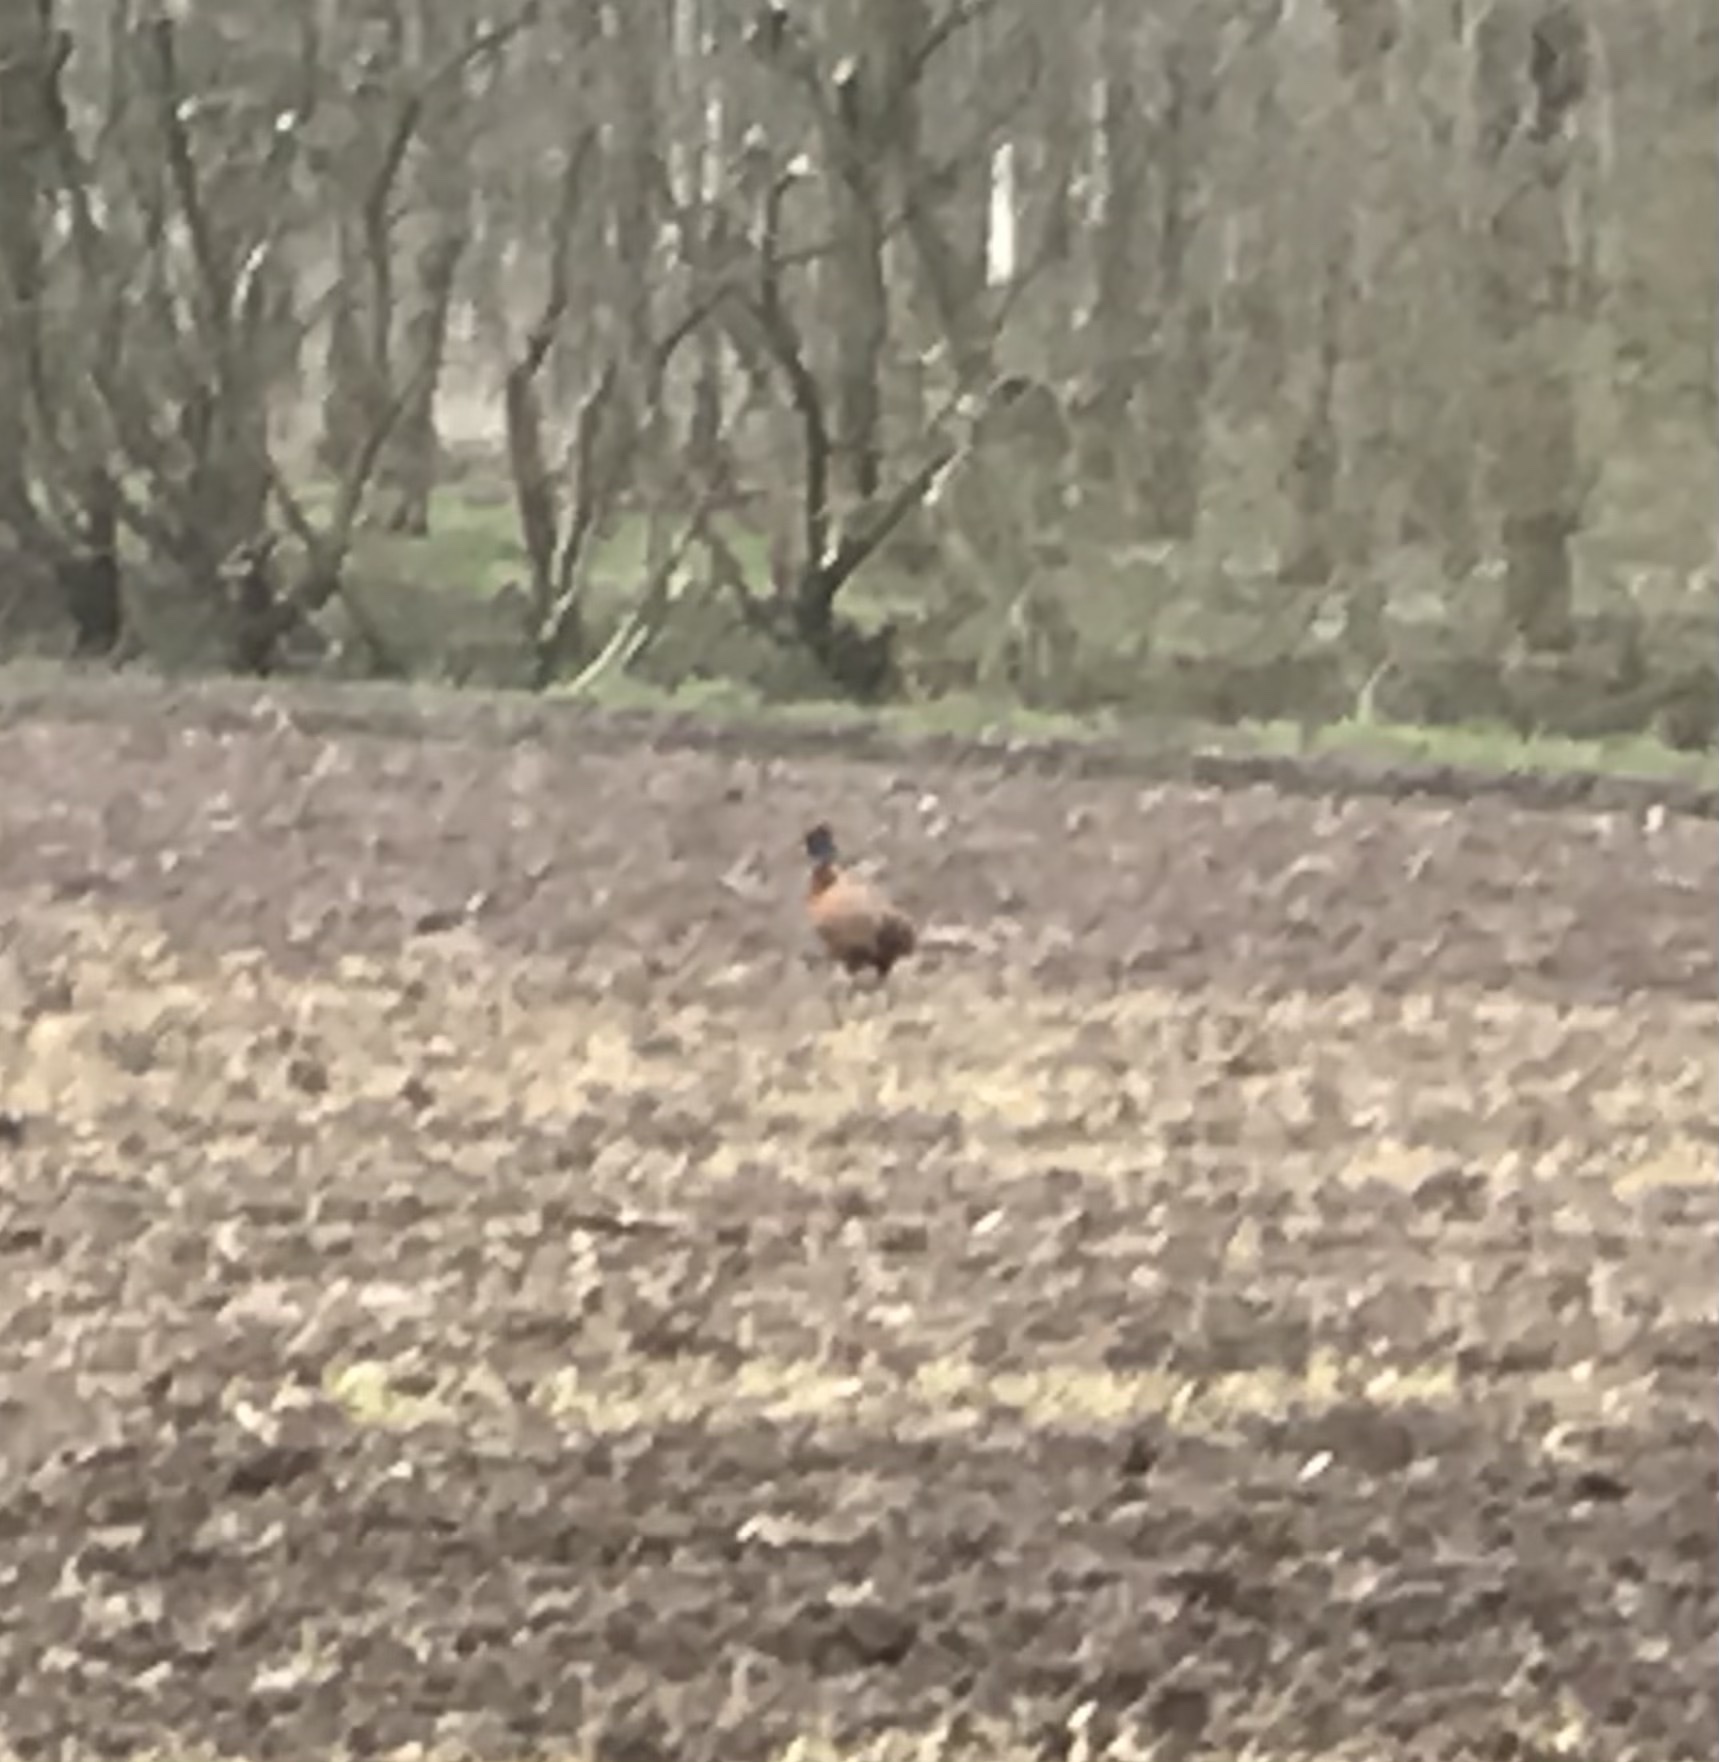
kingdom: Animalia
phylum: Chordata
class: Aves
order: Galliformes
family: Phasianidae
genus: Phasianus
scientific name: Phasianus colchicus
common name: Common pheasant
